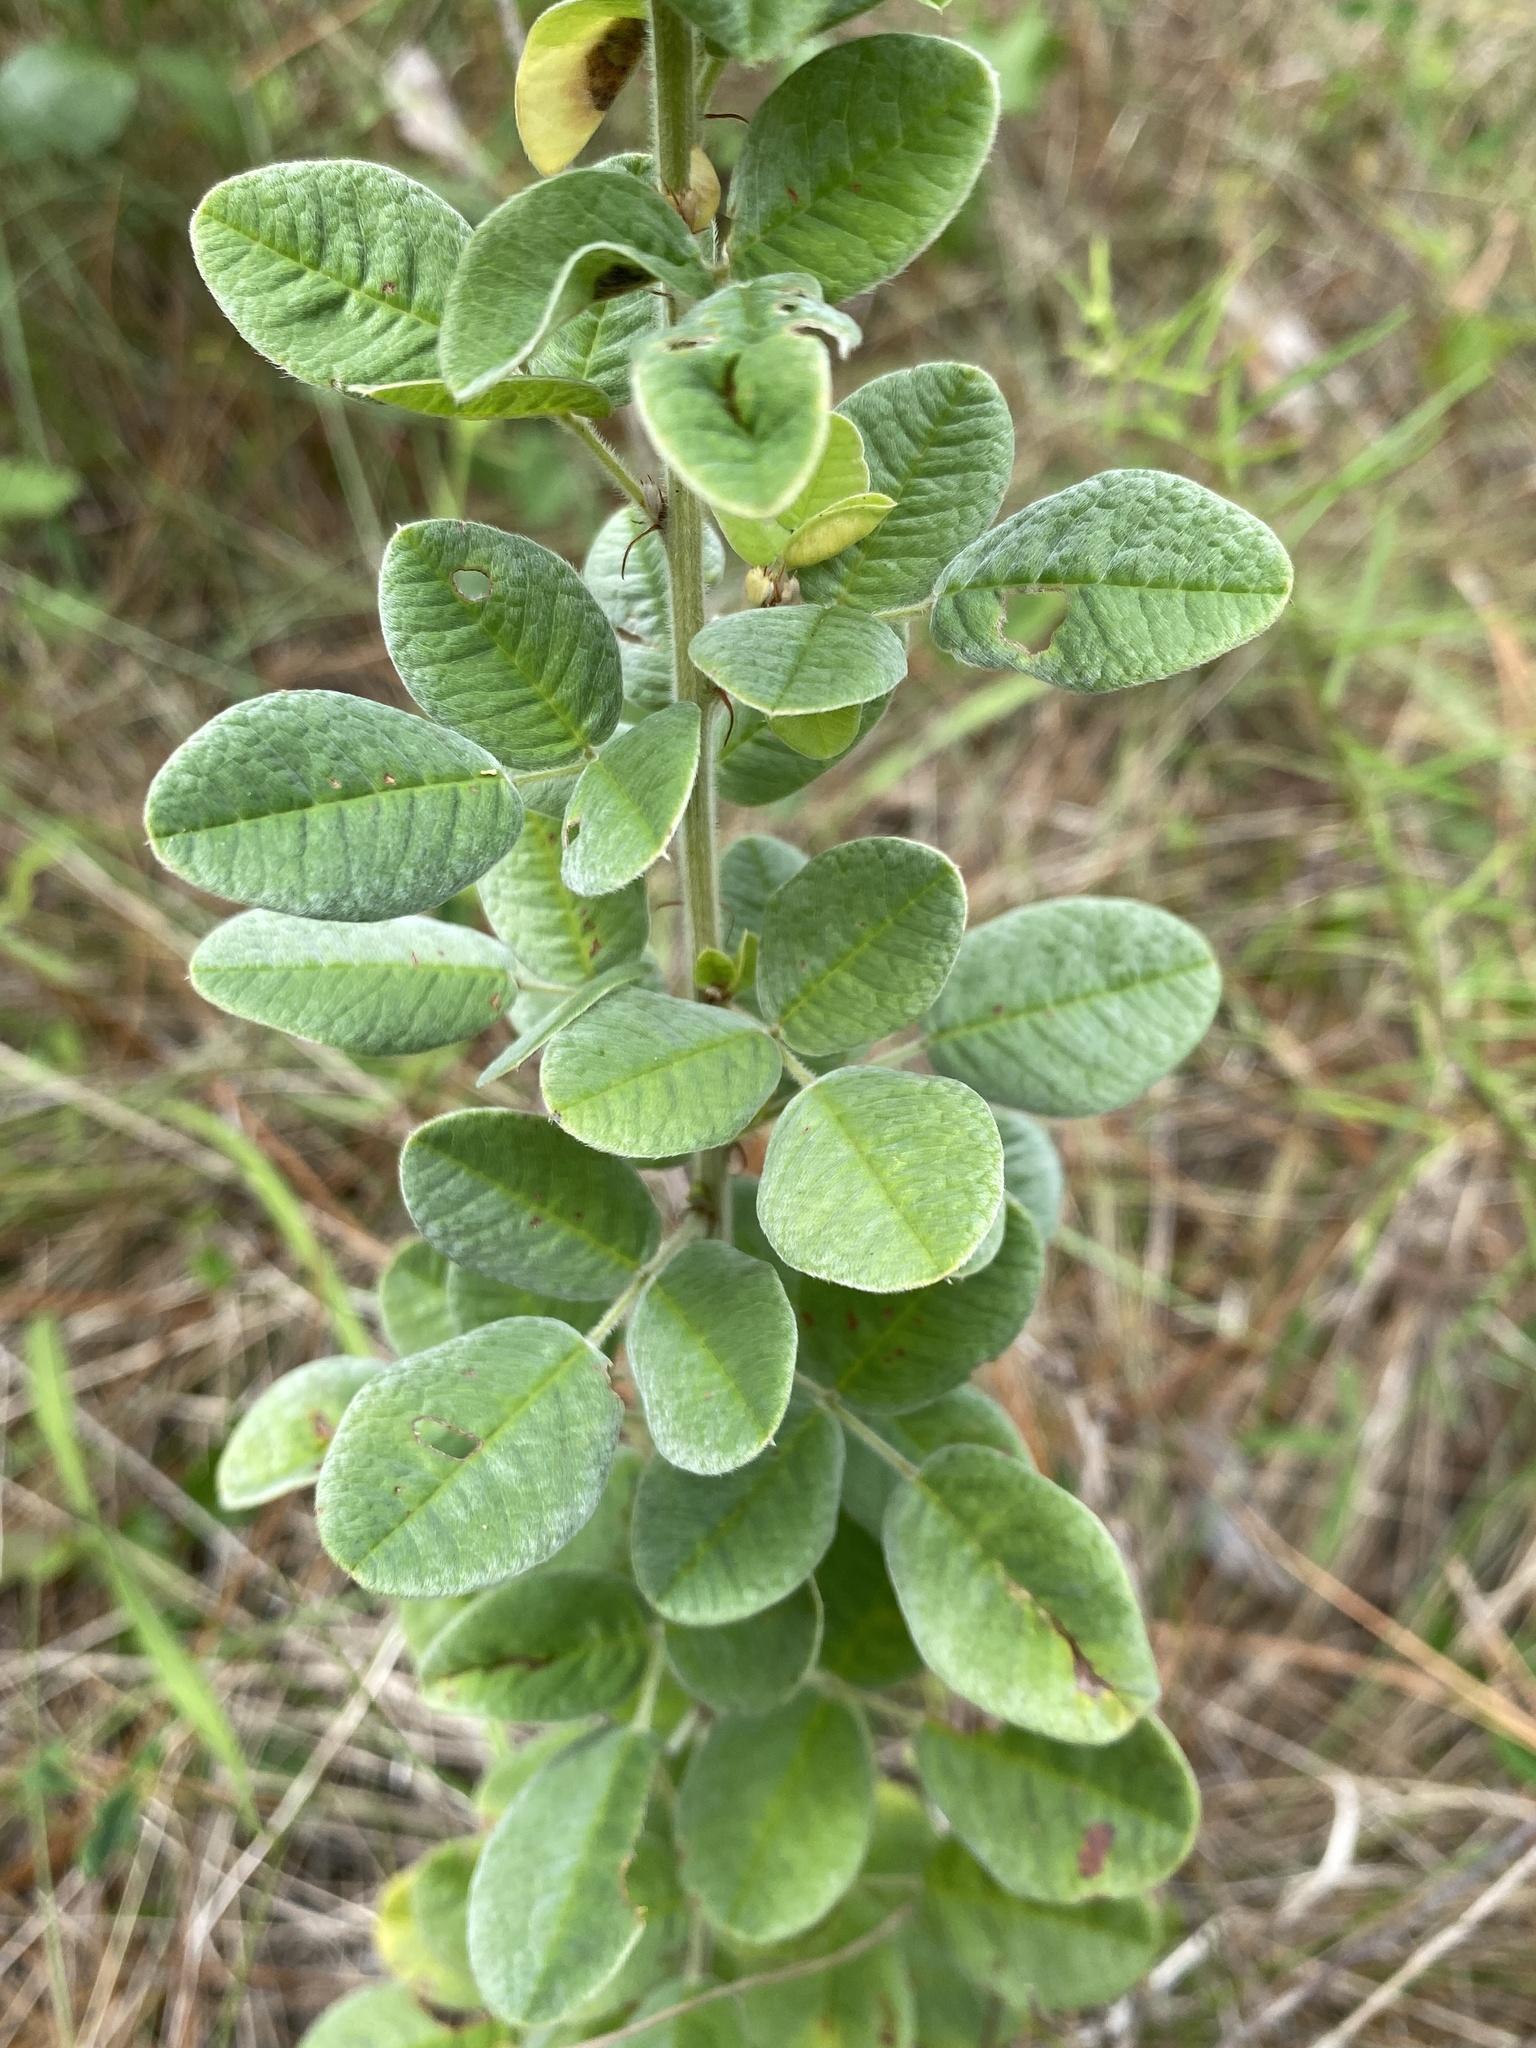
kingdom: Plantae
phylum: Tracheophyta
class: Magnoliopsida
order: Fabales
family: Fabaceae
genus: Lespedeza
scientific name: Lespedeza hirta
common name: Hairy lespedeza
